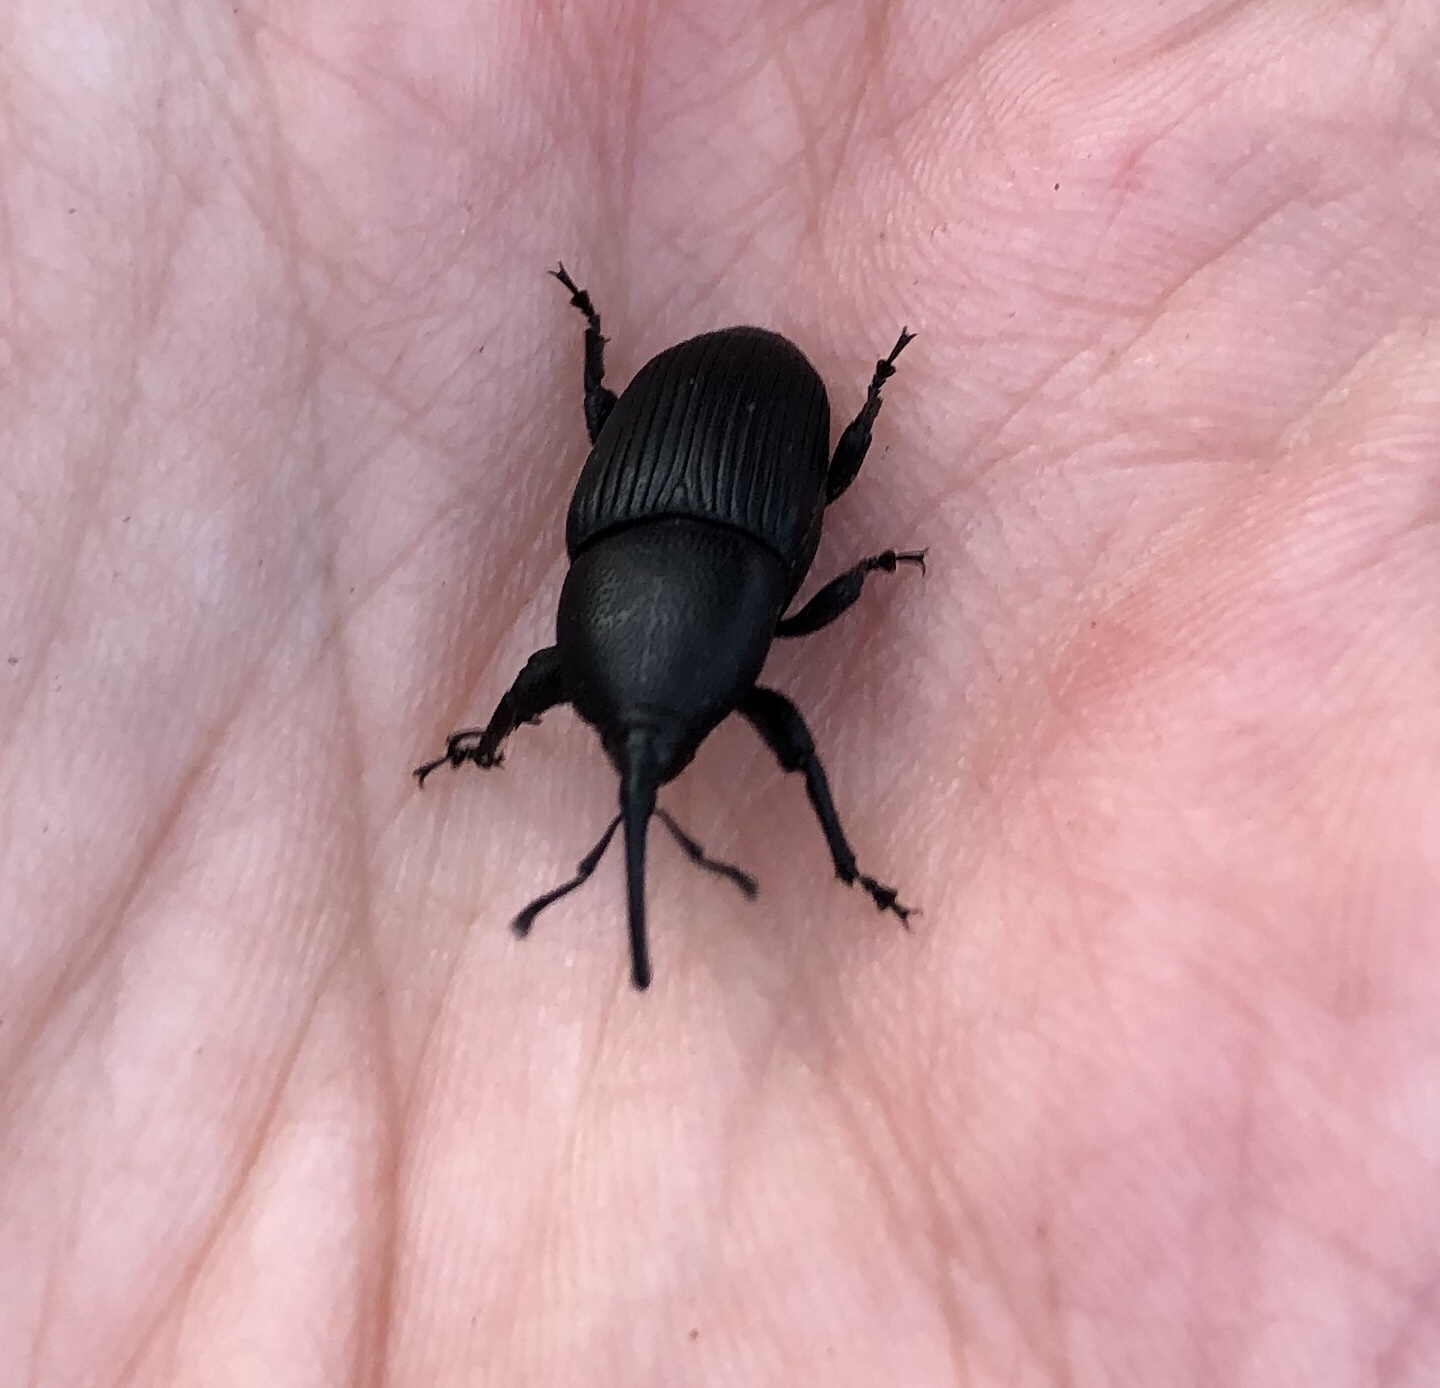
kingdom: Animalia
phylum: Arthropoda
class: Insecta
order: Coleoptera
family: Dryophthoridae
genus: Scyphophorus
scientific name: Scyphophorus yuccae
